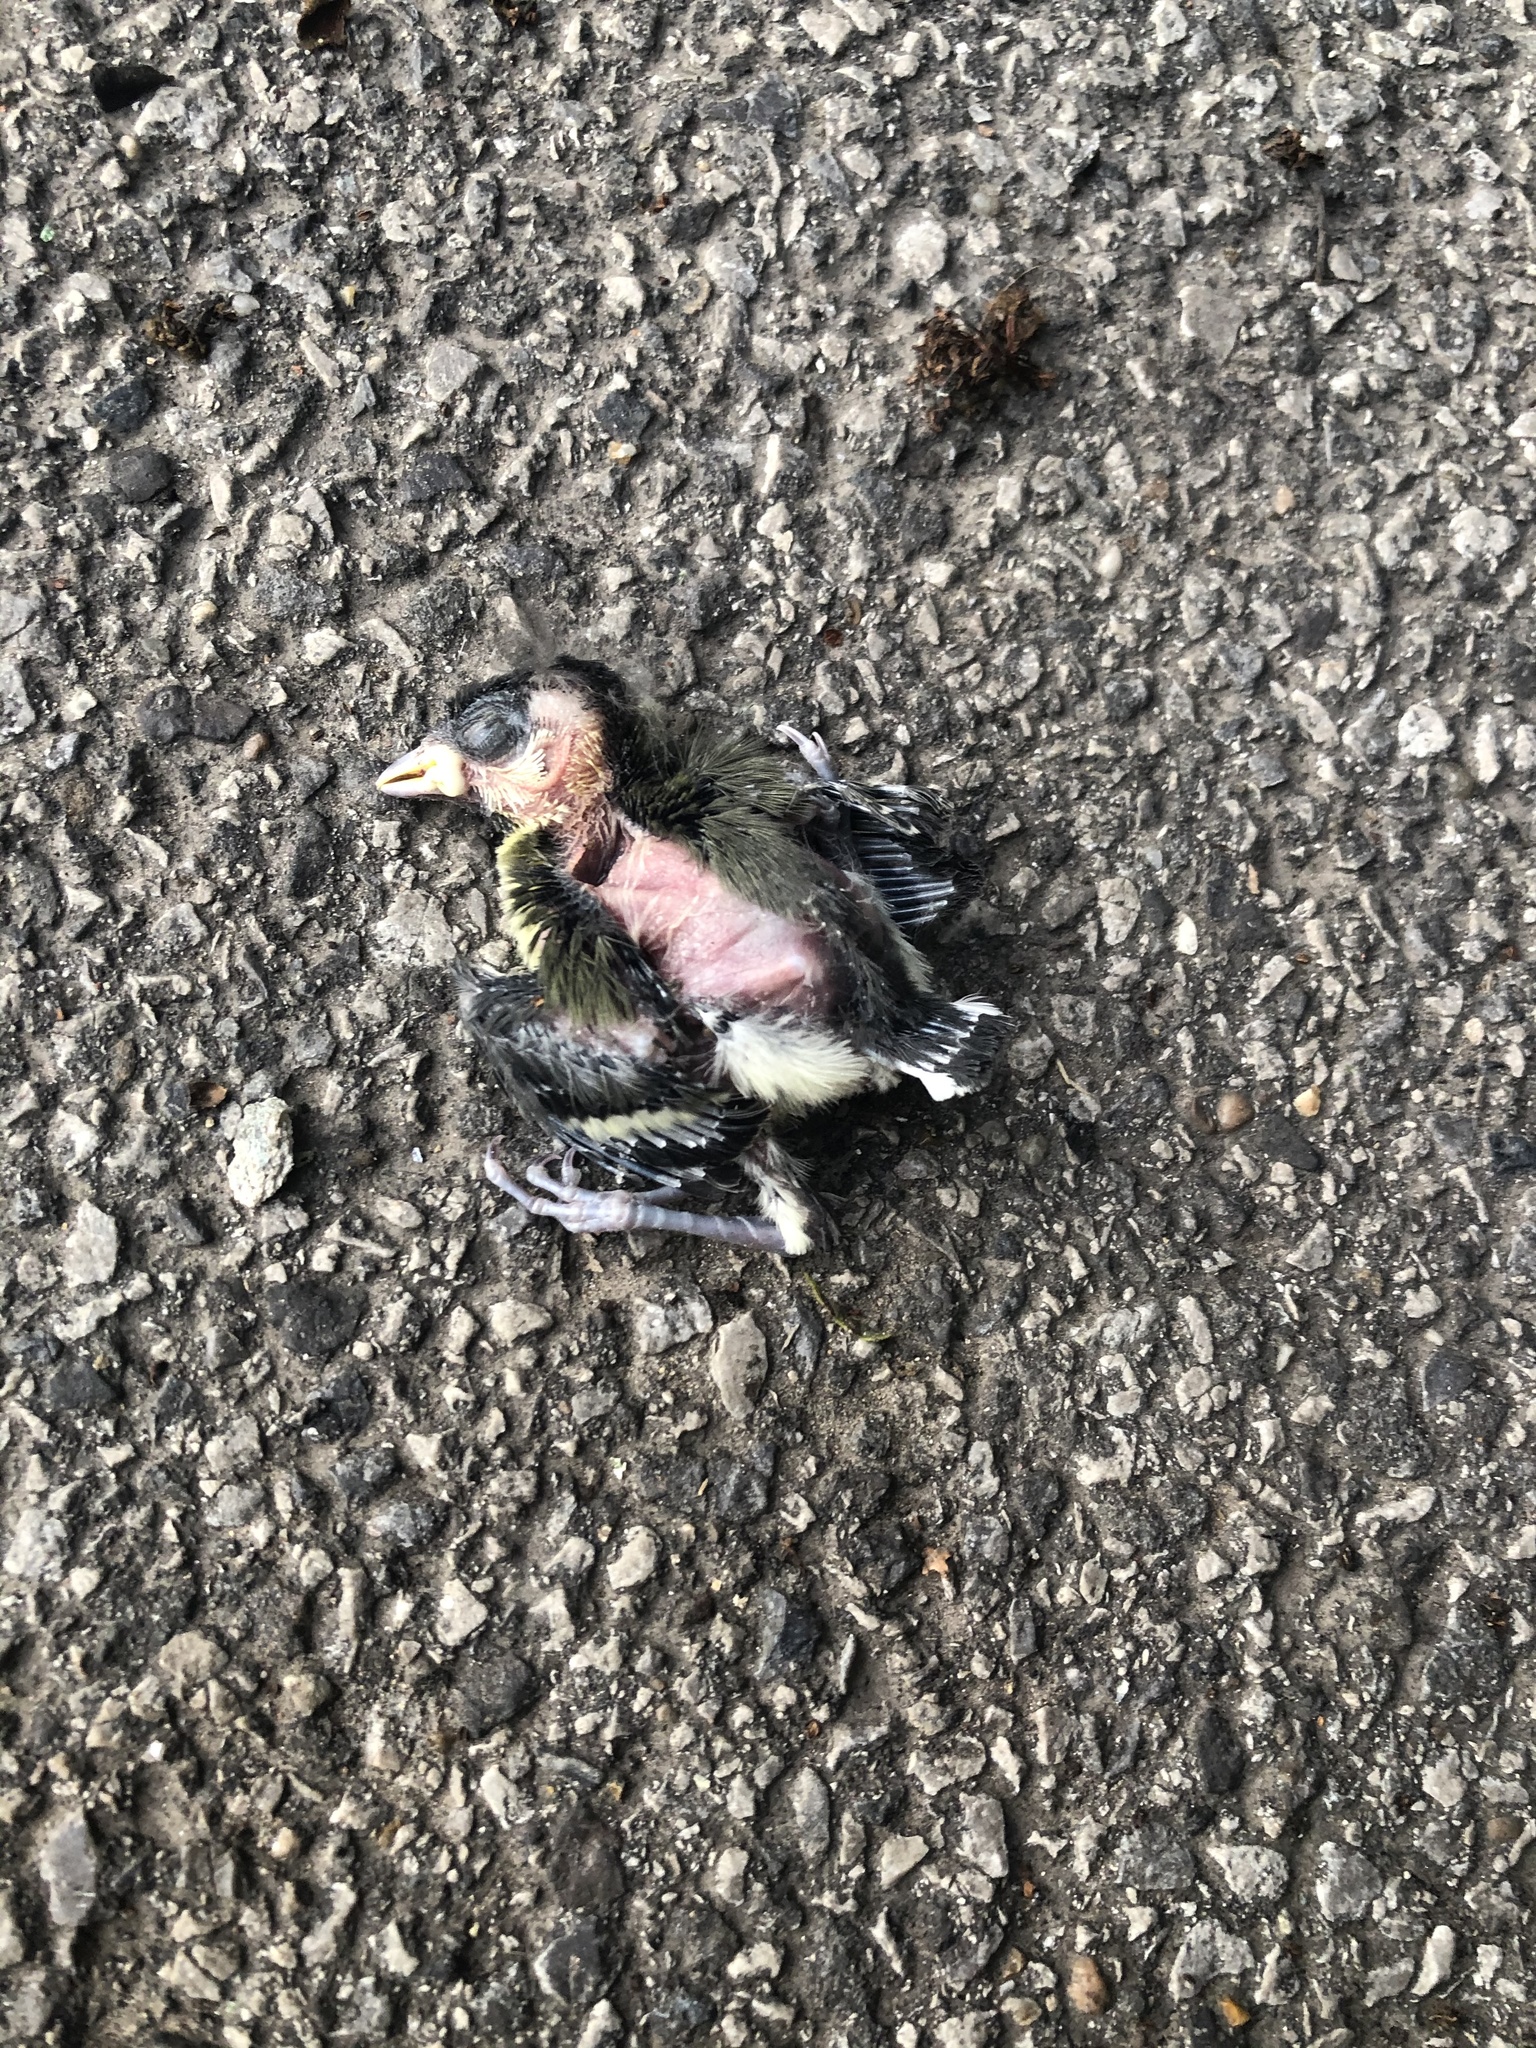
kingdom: Animalia
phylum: Chordata
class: Aves
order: Passeriformes
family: Paridae
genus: Parus
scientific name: Parus major
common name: Great tit
